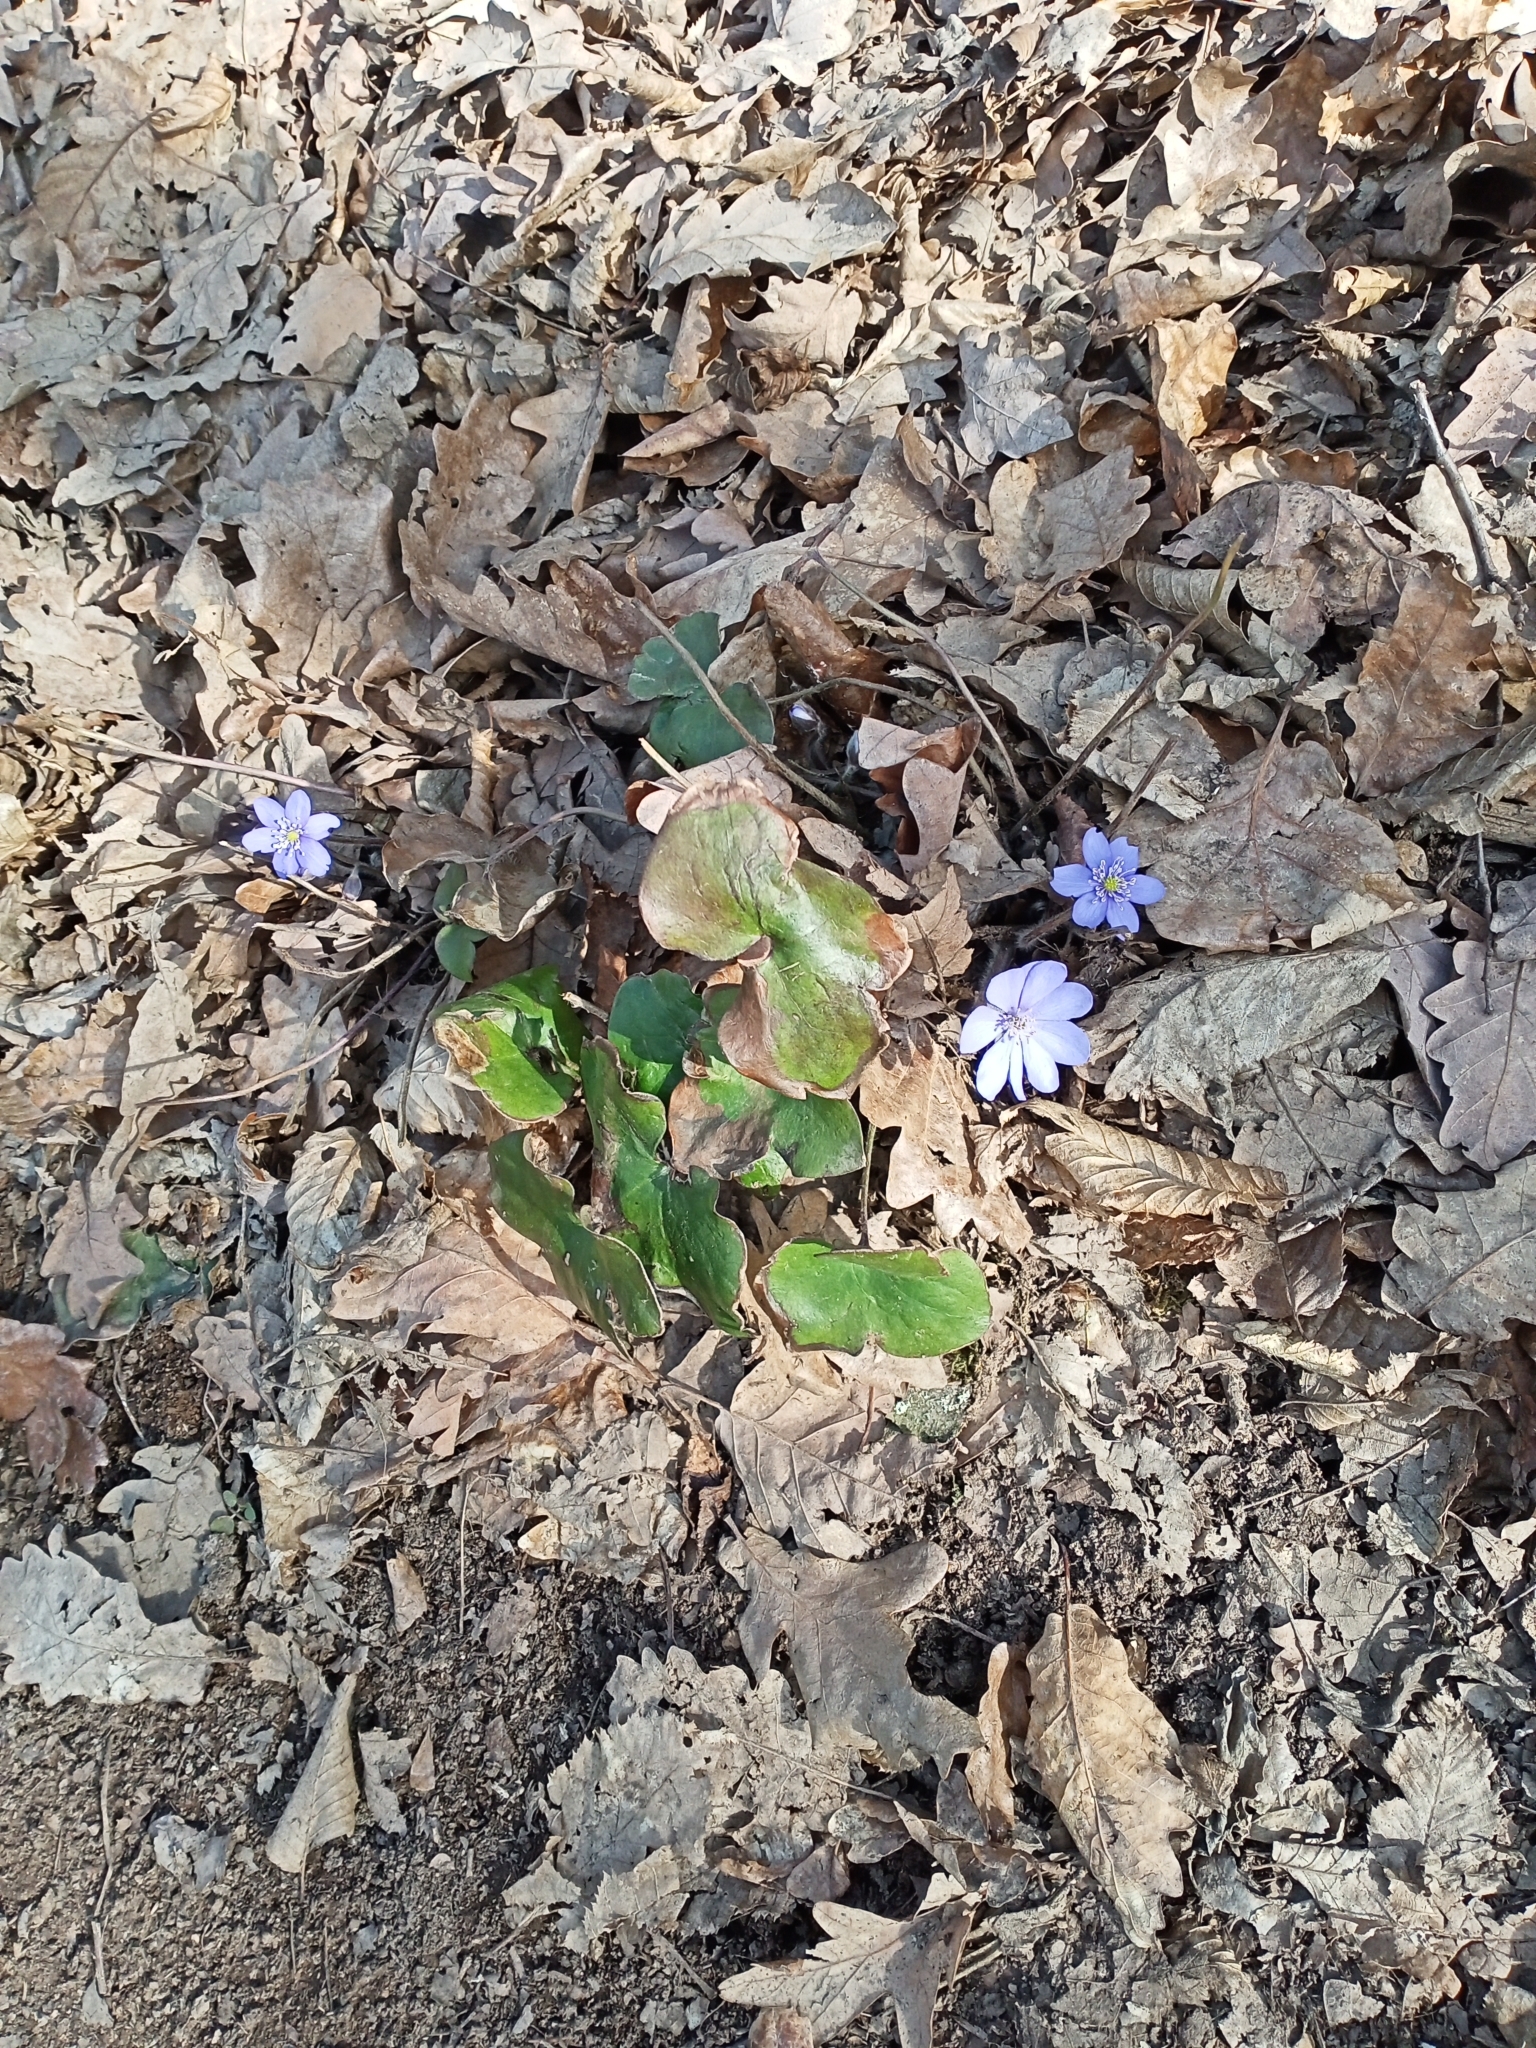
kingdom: Plantae
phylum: Tracheophyta
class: Magnoliopsida
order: Ranunculales
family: Ranunculaceae
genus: Hepatica
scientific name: Hepatica nobilis
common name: Liverleaf
